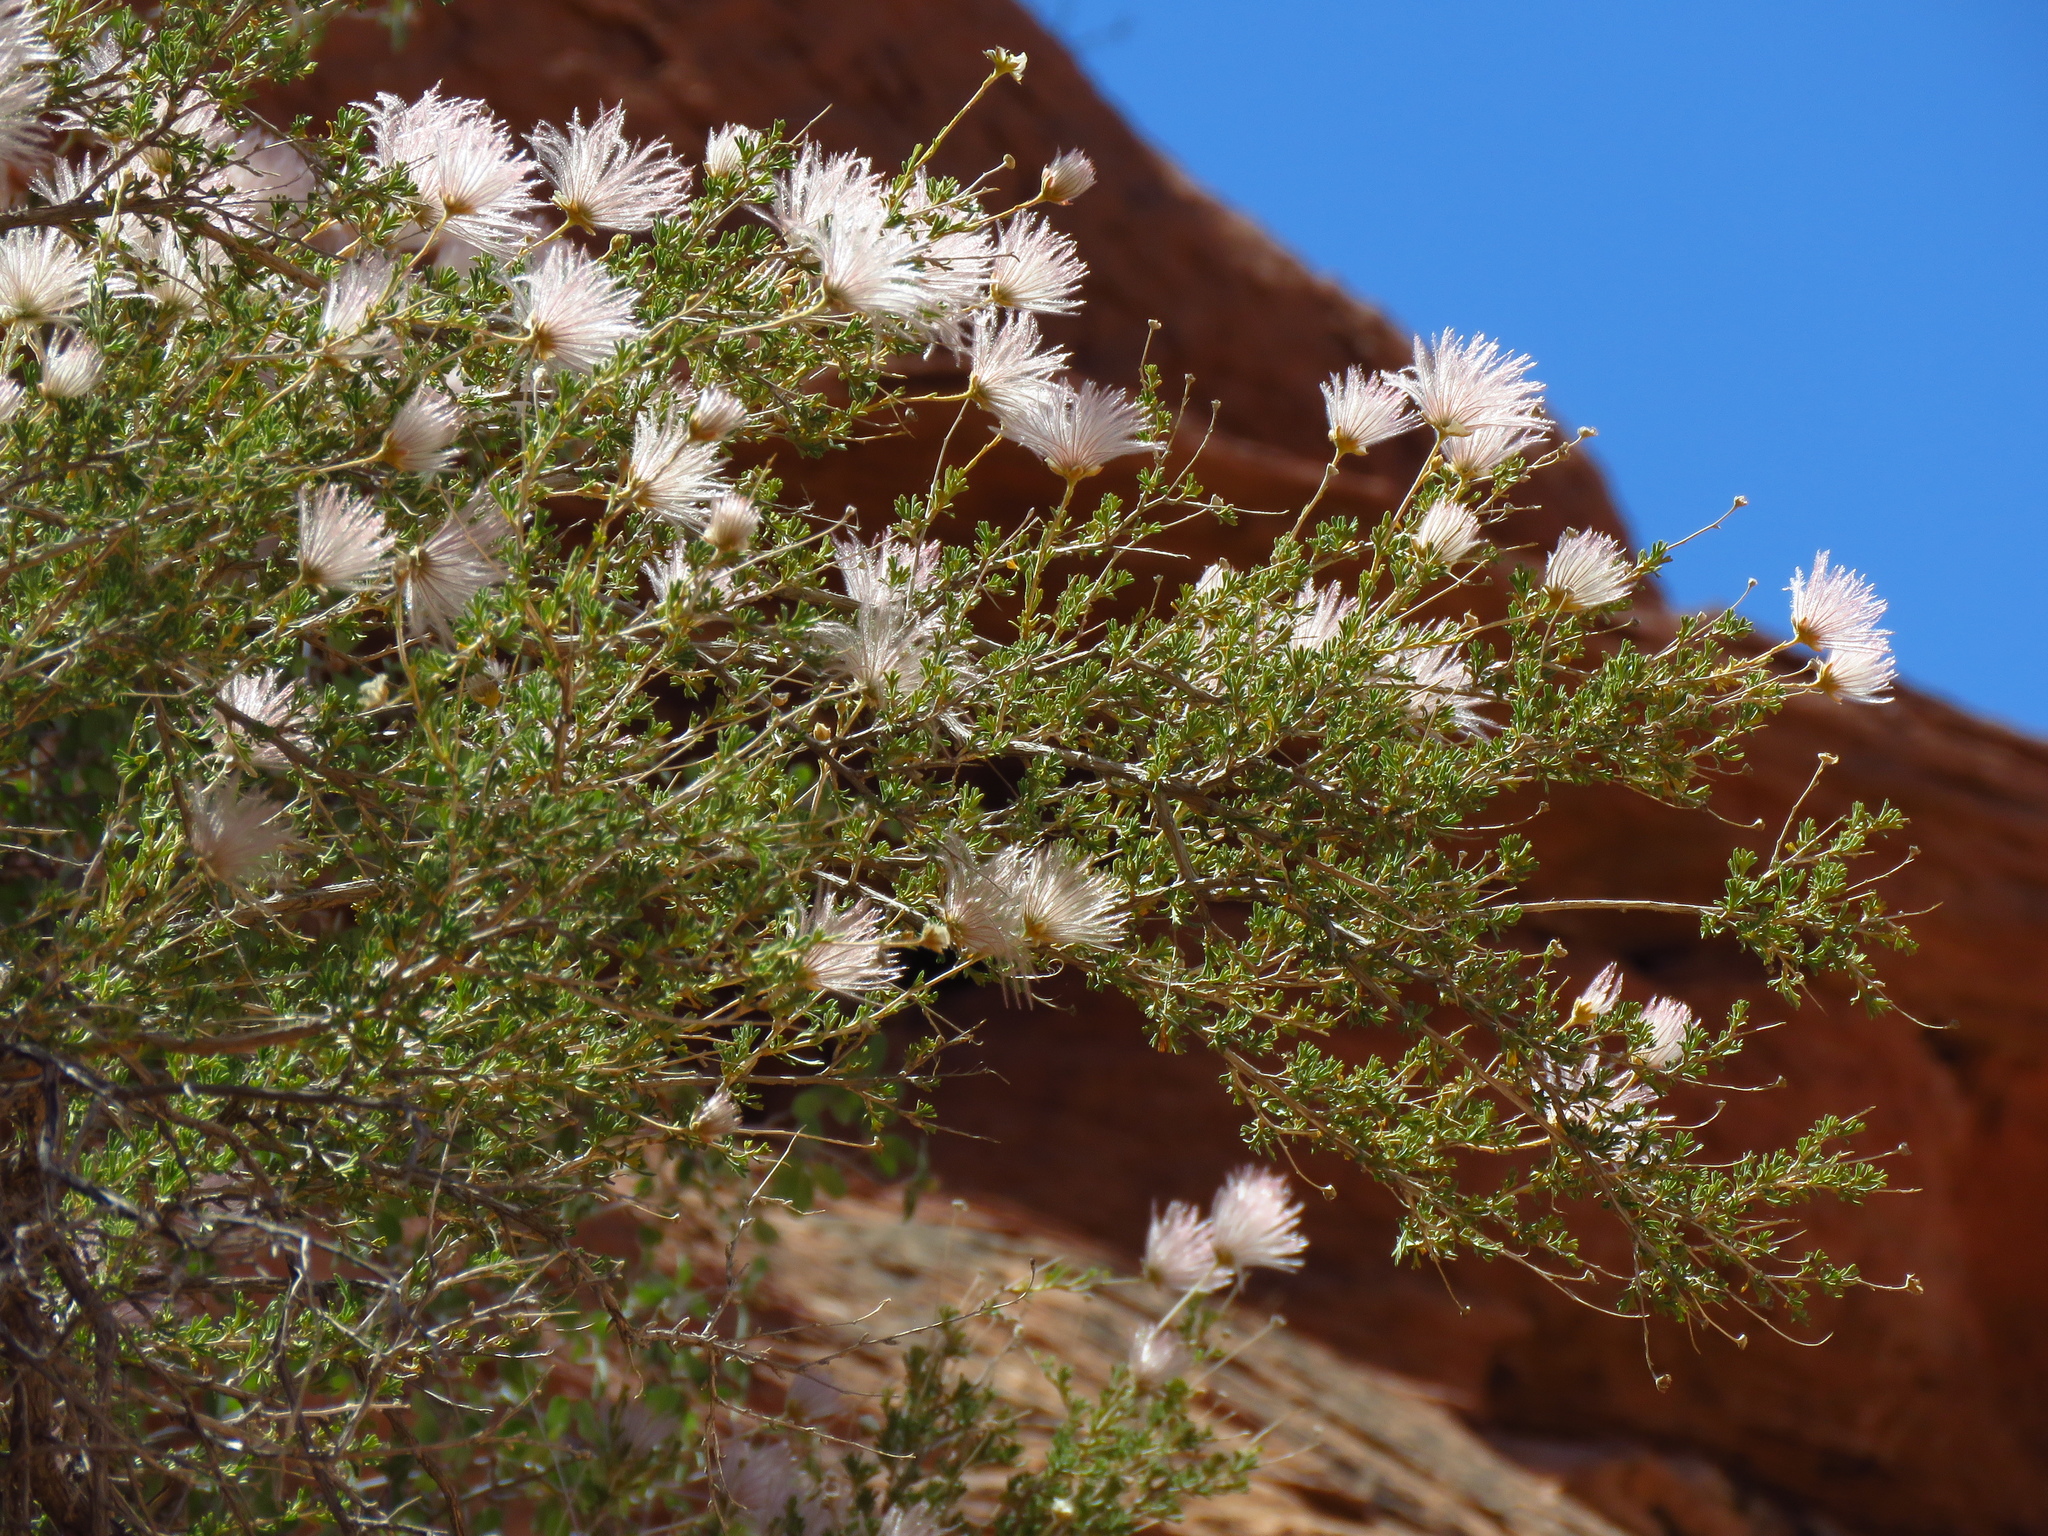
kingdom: Plantae
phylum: Tracheophyta
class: Magnoliopsida
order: Rosales
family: Rosaceae
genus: Fallugia
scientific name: Fallugia paradoxa
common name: Apache-plume
